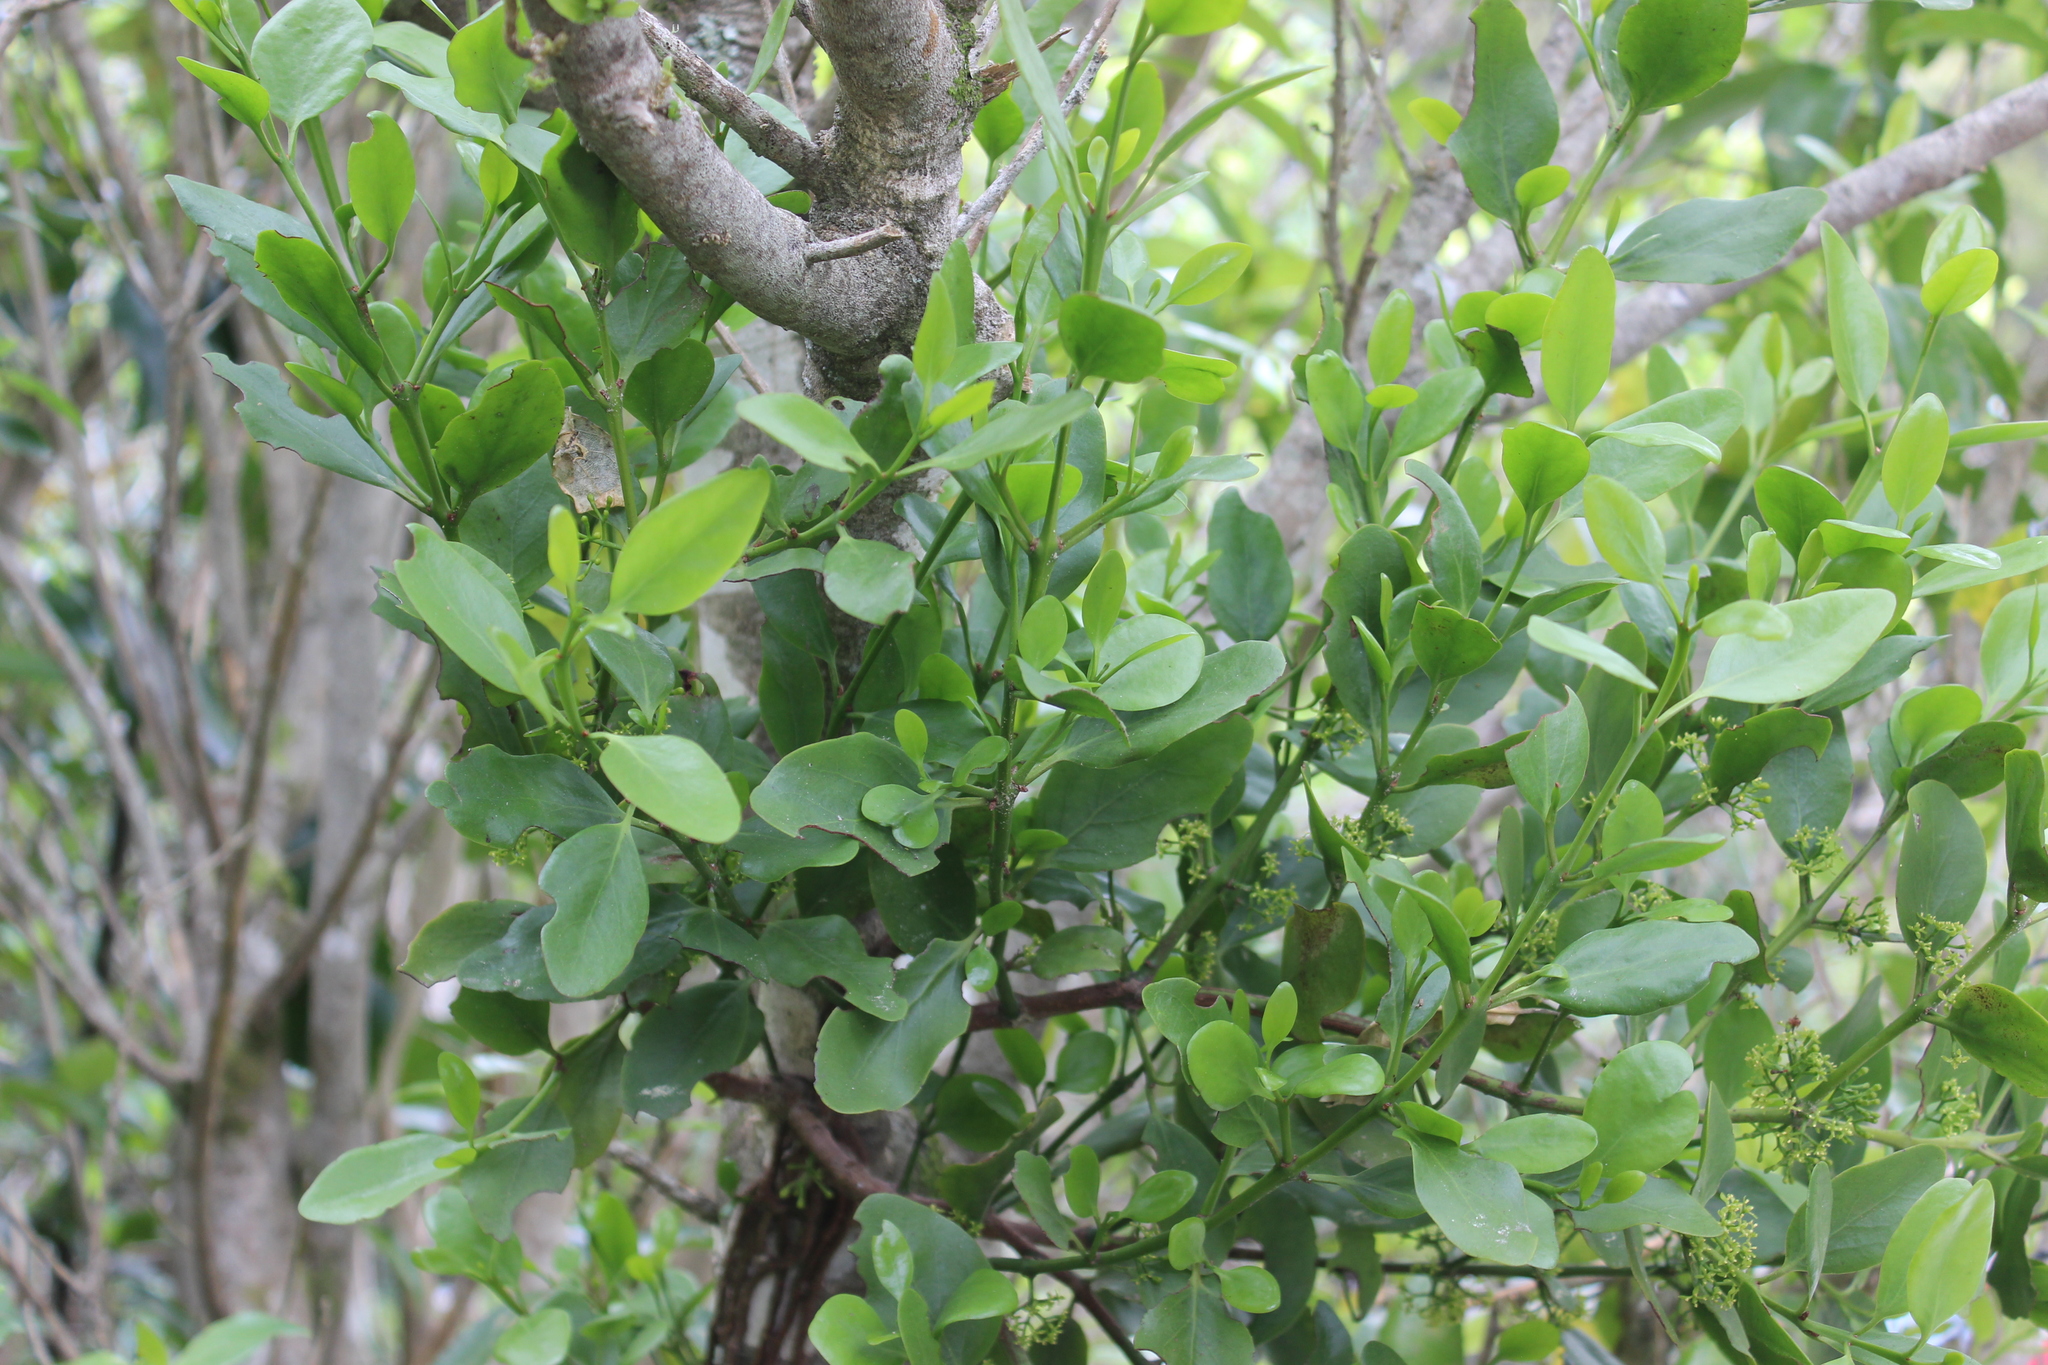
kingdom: Plantae
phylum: Tracheophyta
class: Magnoliopsida
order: Santalales
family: Loranthaceae
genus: Ileostylus
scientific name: Ileostylus micranthus
